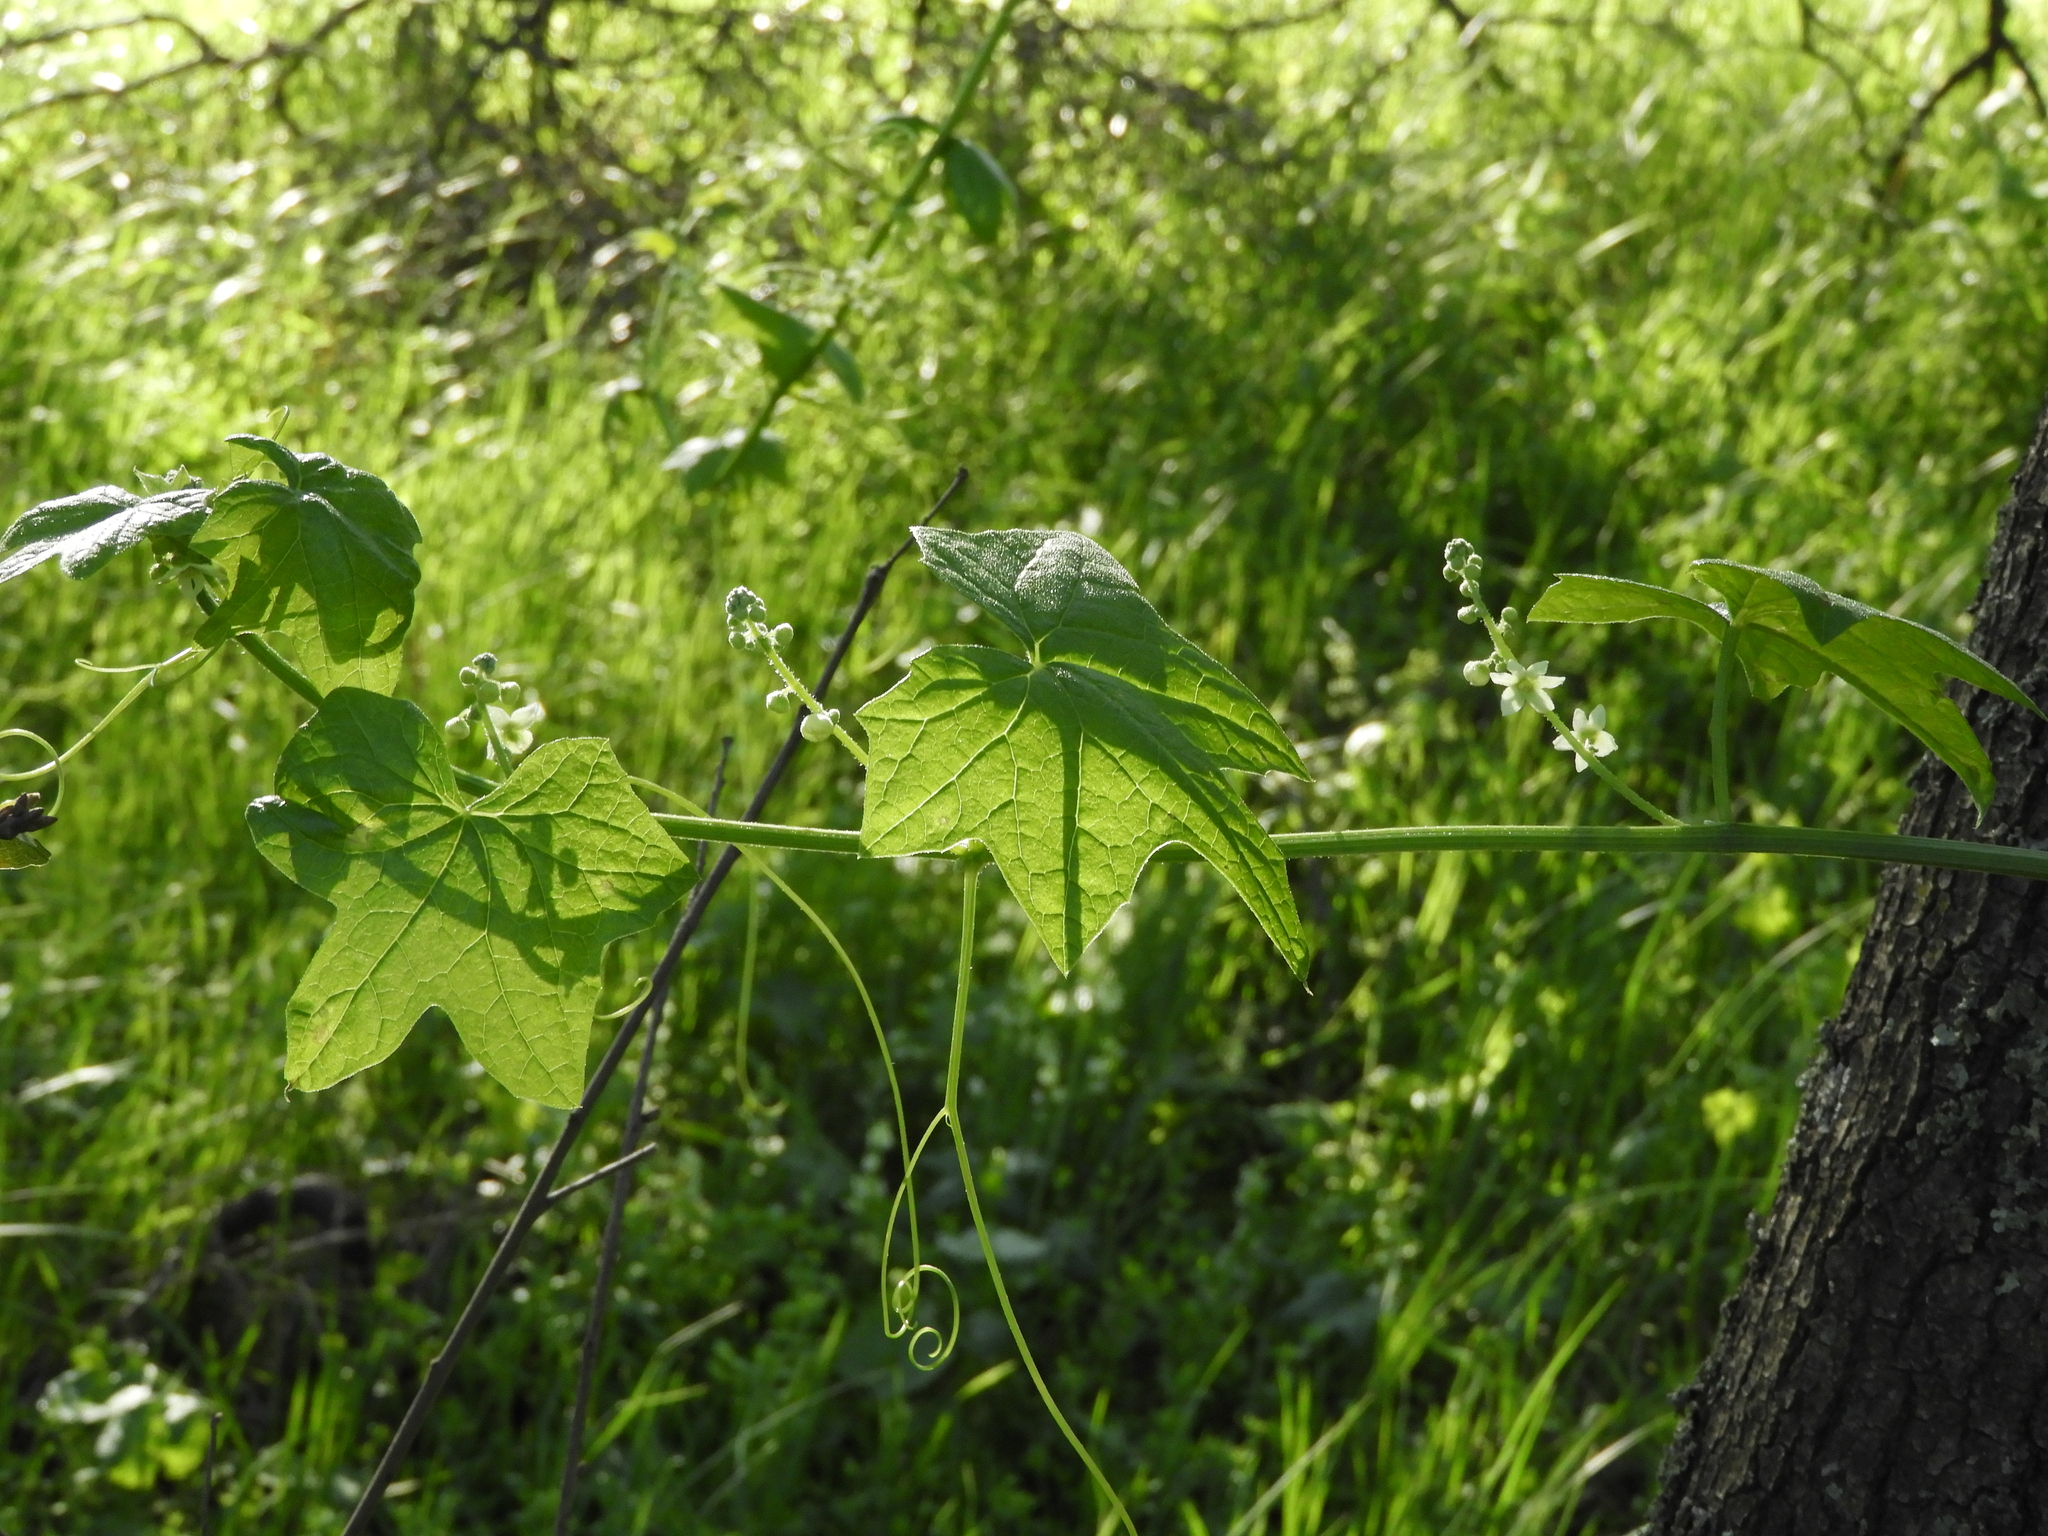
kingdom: Plantae
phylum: Tracheophyta
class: Magnoliopsida
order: Cucurbitales
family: Cucurbitaceae
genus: Marah
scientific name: Marah fabacea
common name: California manroot
